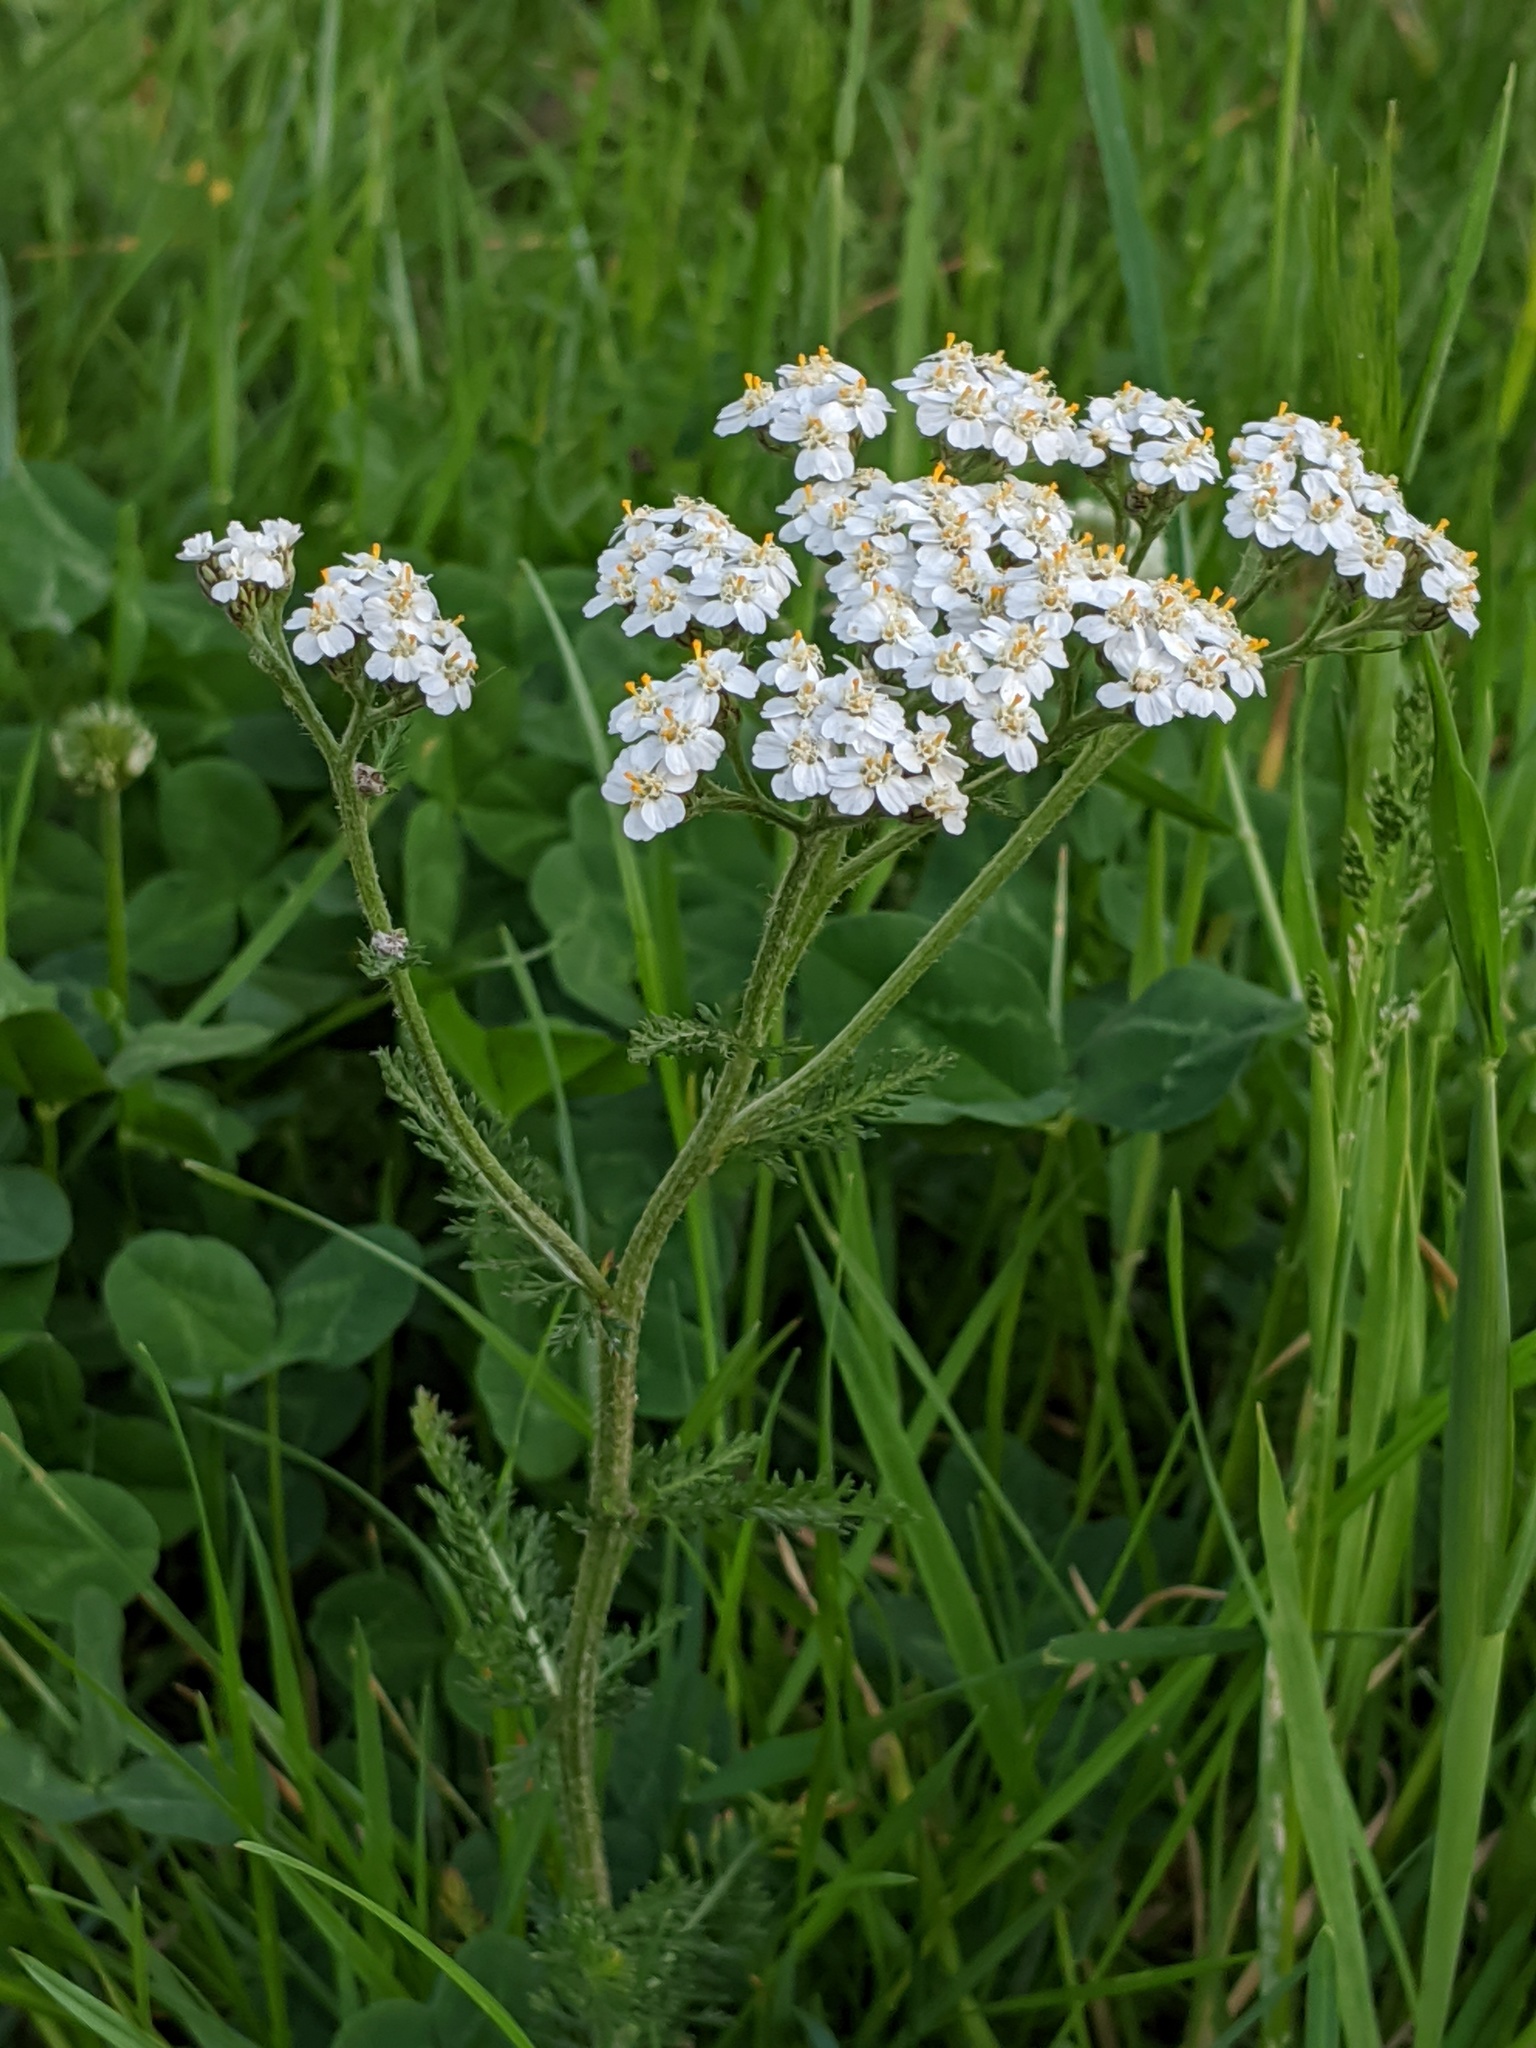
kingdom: Plantae
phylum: Tracheophyta
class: Magnoliopsida
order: Asterales
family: Asteraceae
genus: Achillea
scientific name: Achillea millefolium
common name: Yarrow
